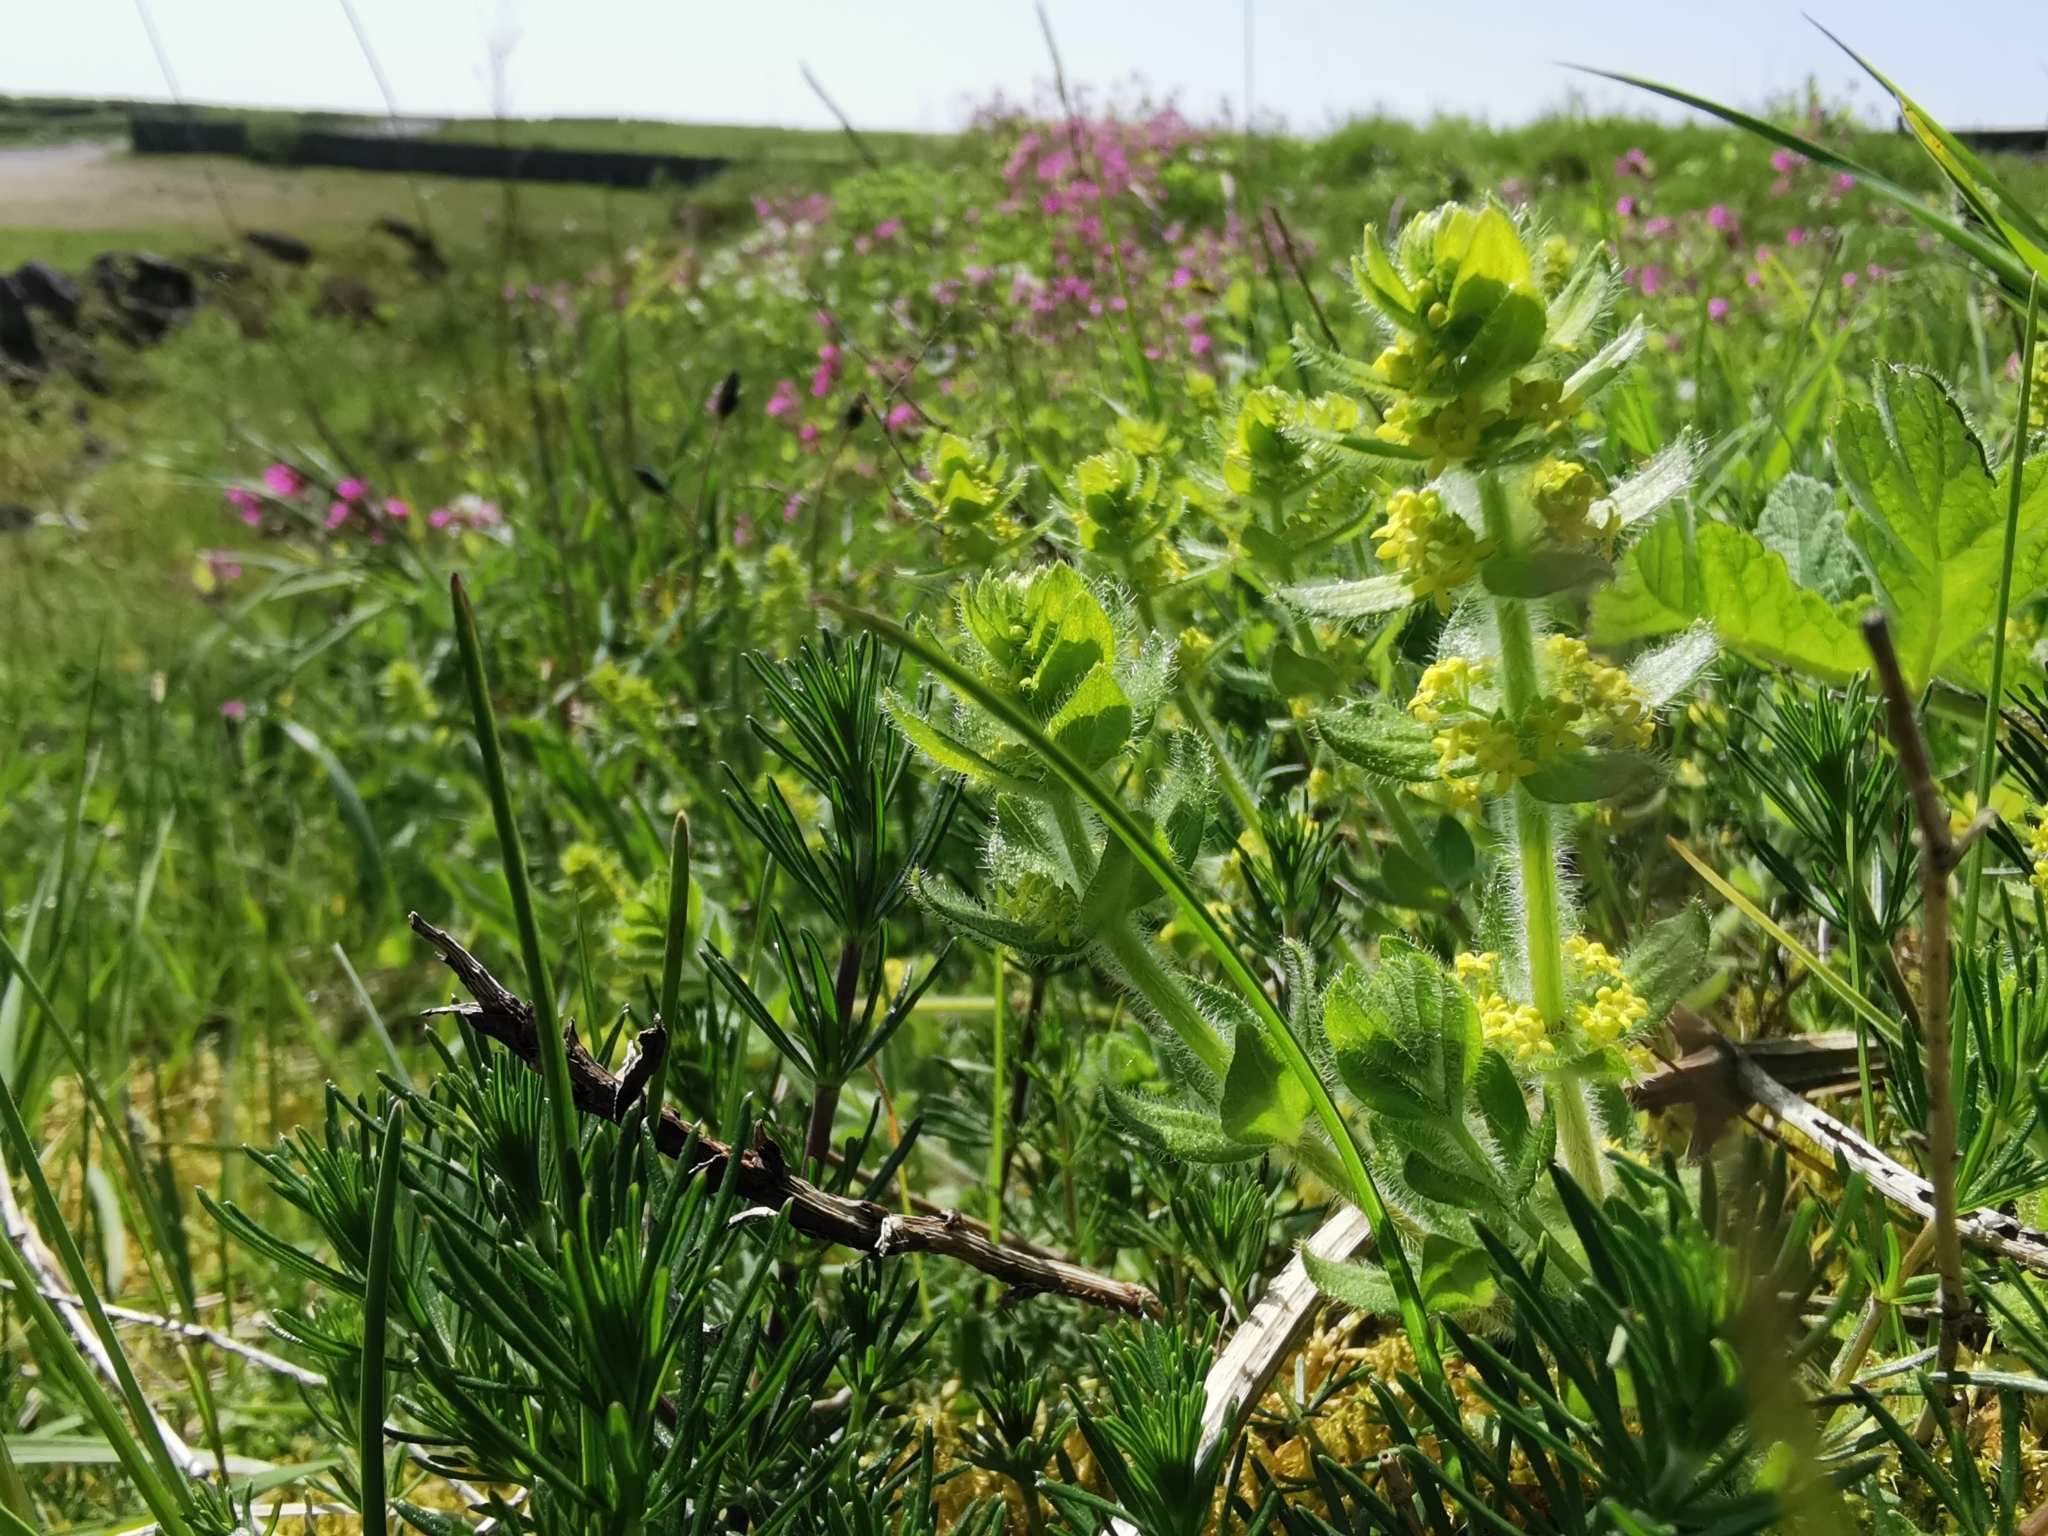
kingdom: Plantae
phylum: Tracheophyta
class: Magnoliopsida
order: Gentianales
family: Rubiaceae
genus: Cruciata
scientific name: Cruciata laevipes
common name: Crosswort
